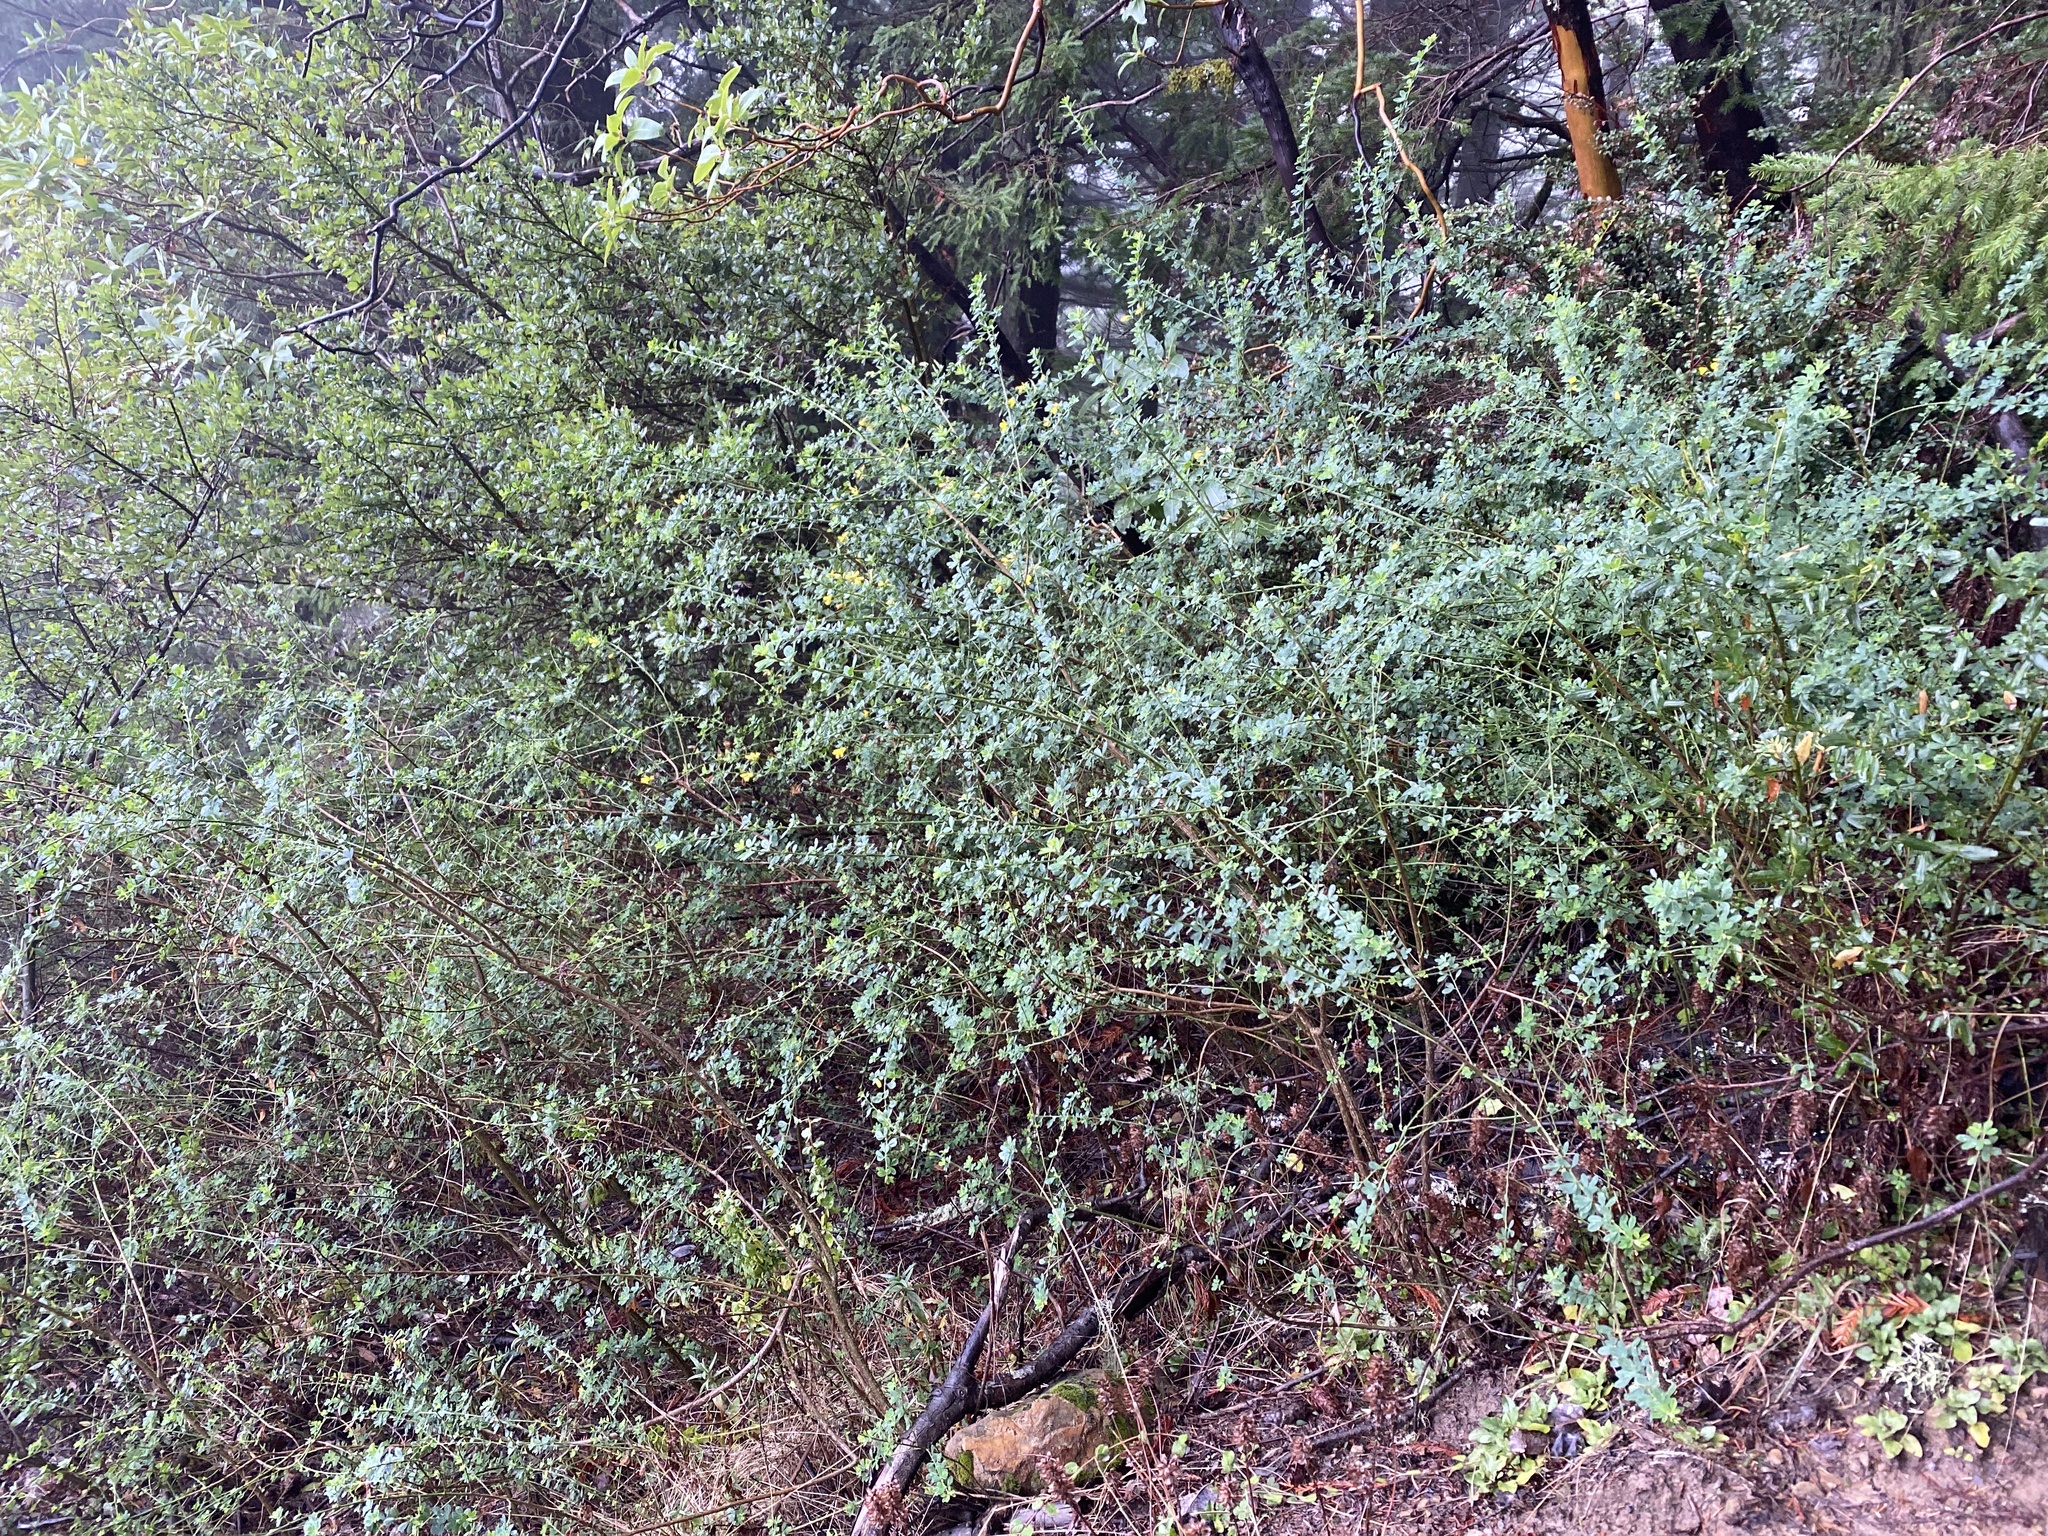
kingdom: Plantae
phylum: Tracheophyta
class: Magnoliopsida
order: Fabales
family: Fabaceae
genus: Genista
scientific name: Genista monspessulana
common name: Montpellier broom
